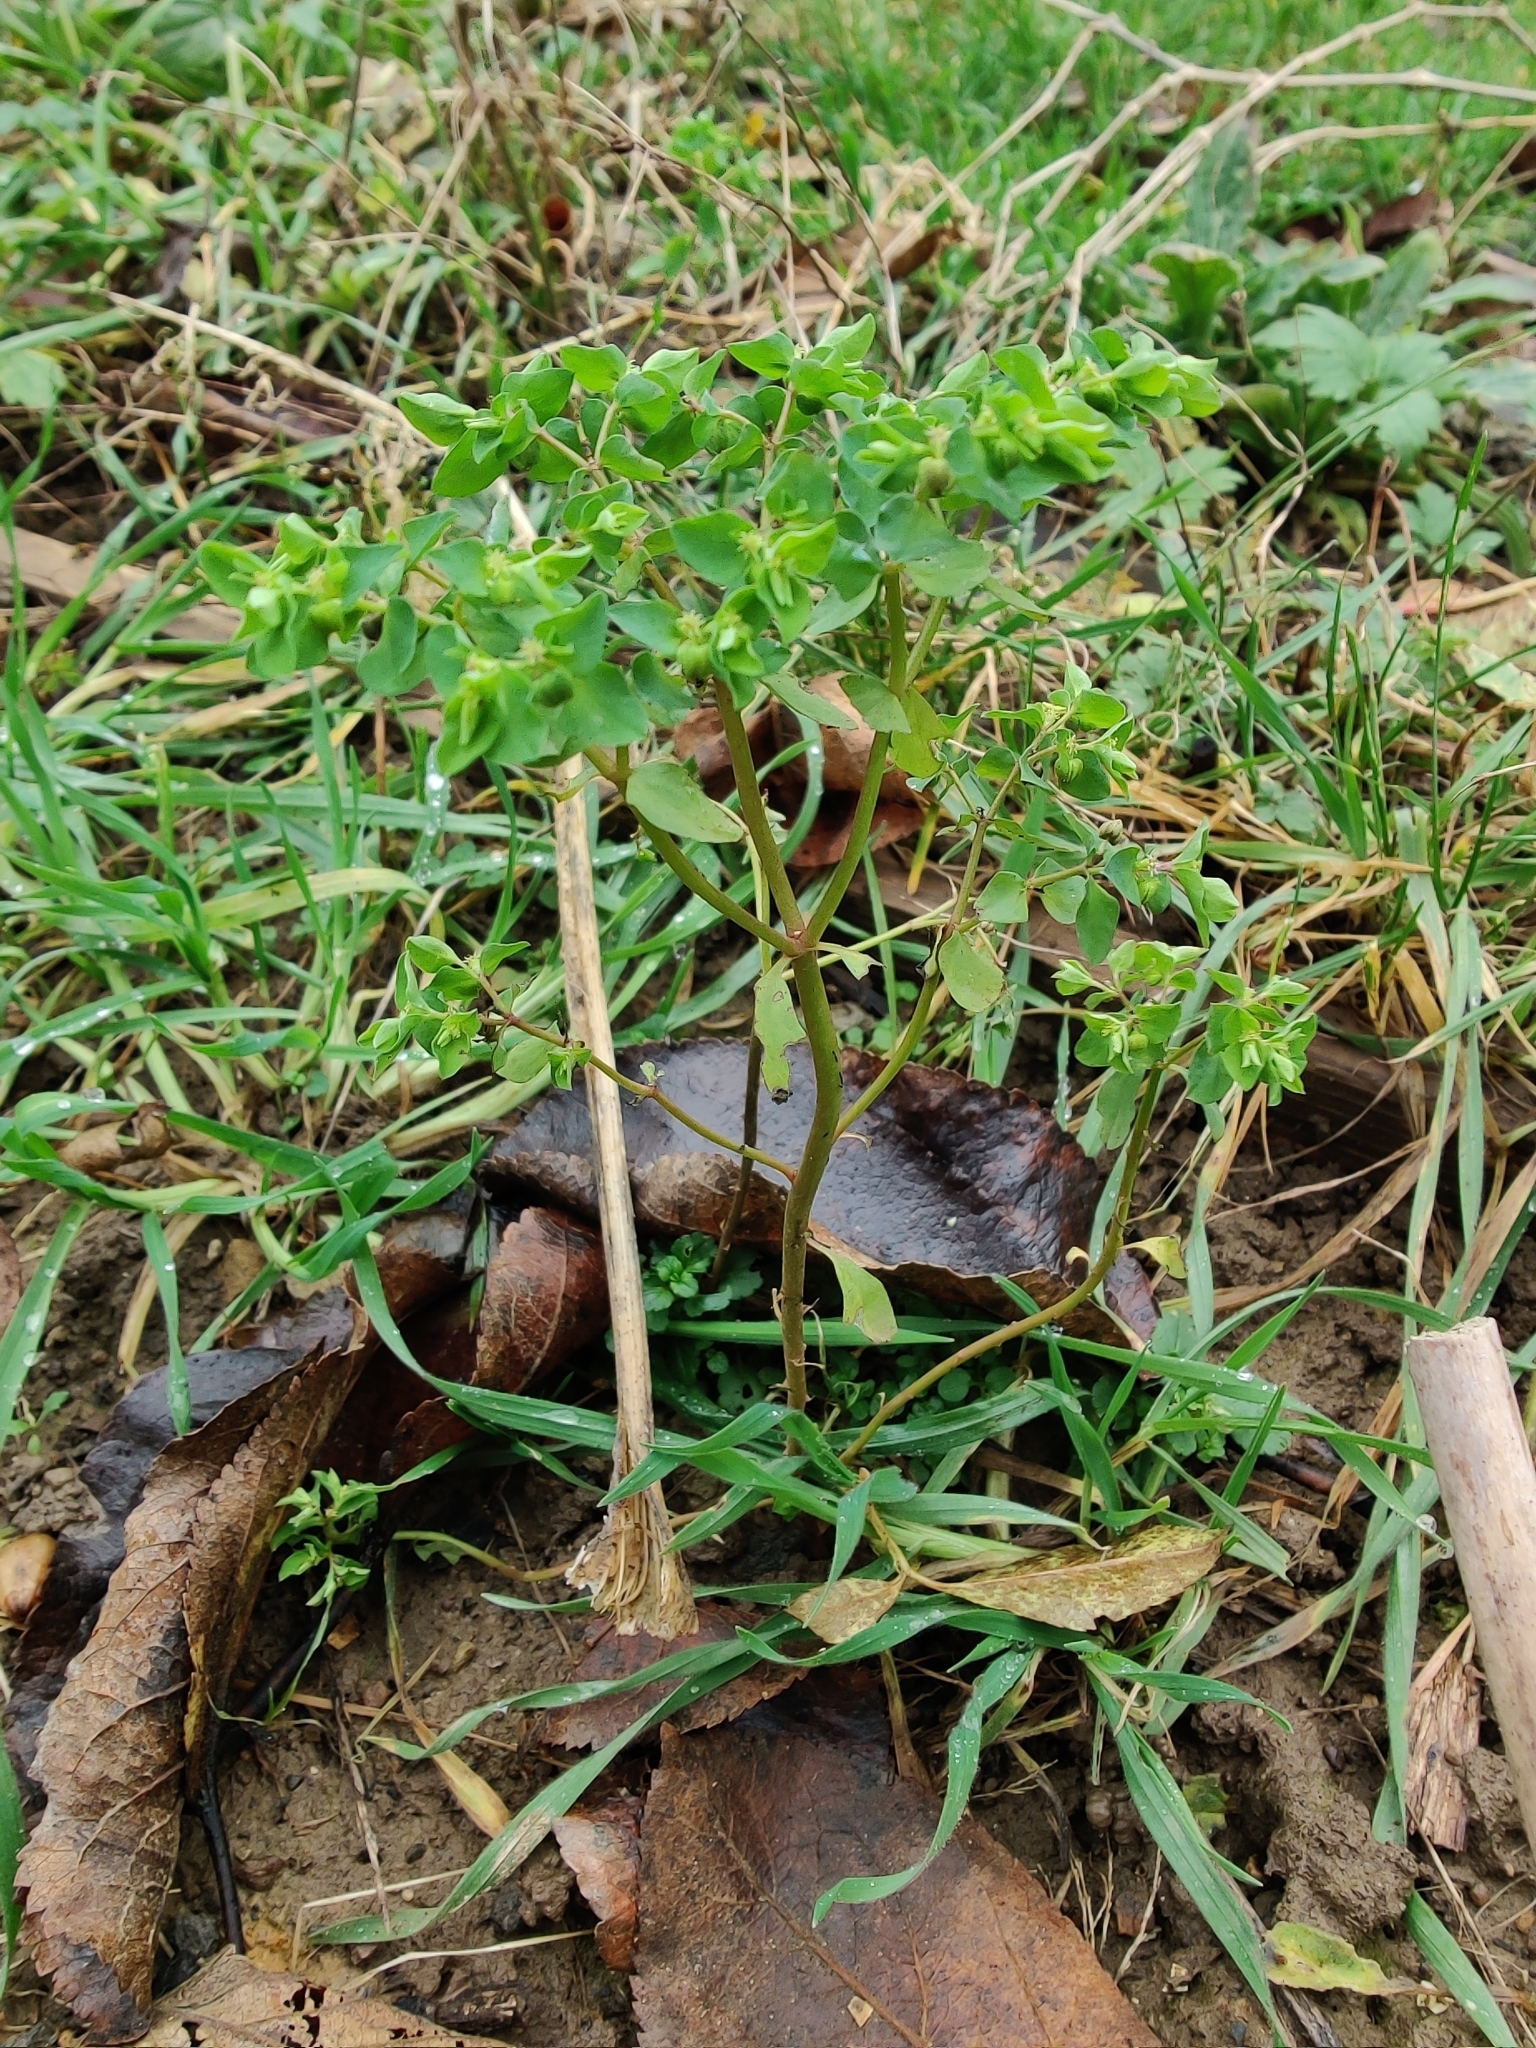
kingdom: Plantae
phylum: Tracheophyta
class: Magnoliopsida
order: Malpighiales
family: Euphorbiaceae
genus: Euphorbia
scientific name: Euphorbia peplus
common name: Petty spurge
